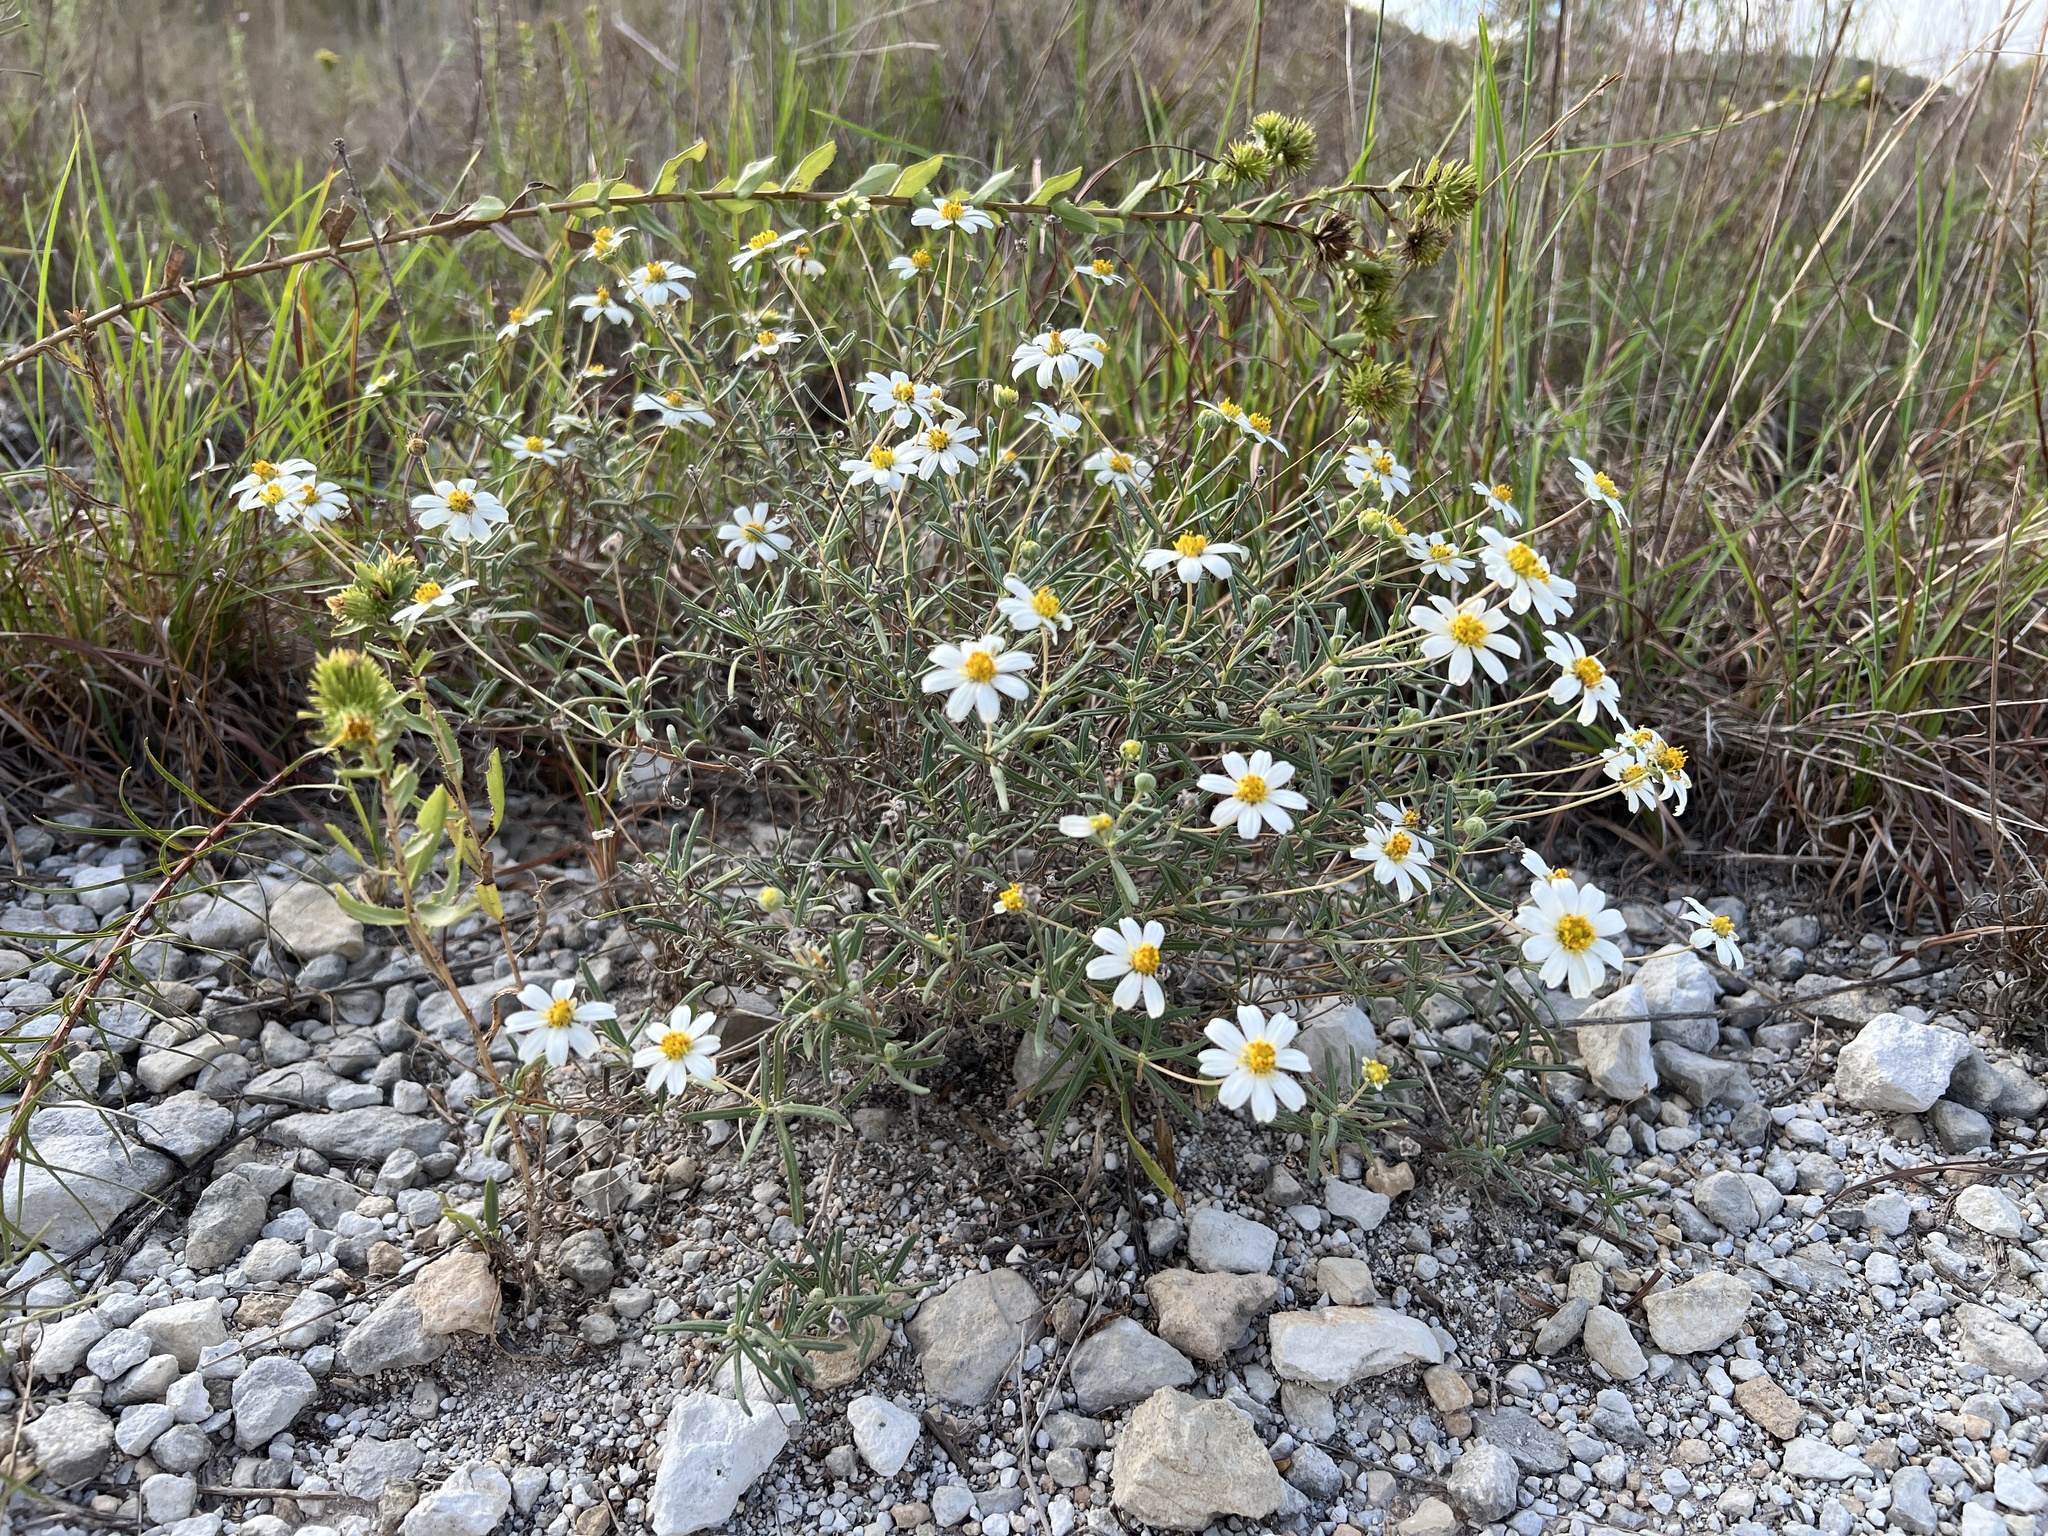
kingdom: Plantae
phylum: Tracheophyta
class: Magnoliopsida
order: Asterales
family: Asteraceae
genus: Melampodium
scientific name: Melampodium leucanthum
